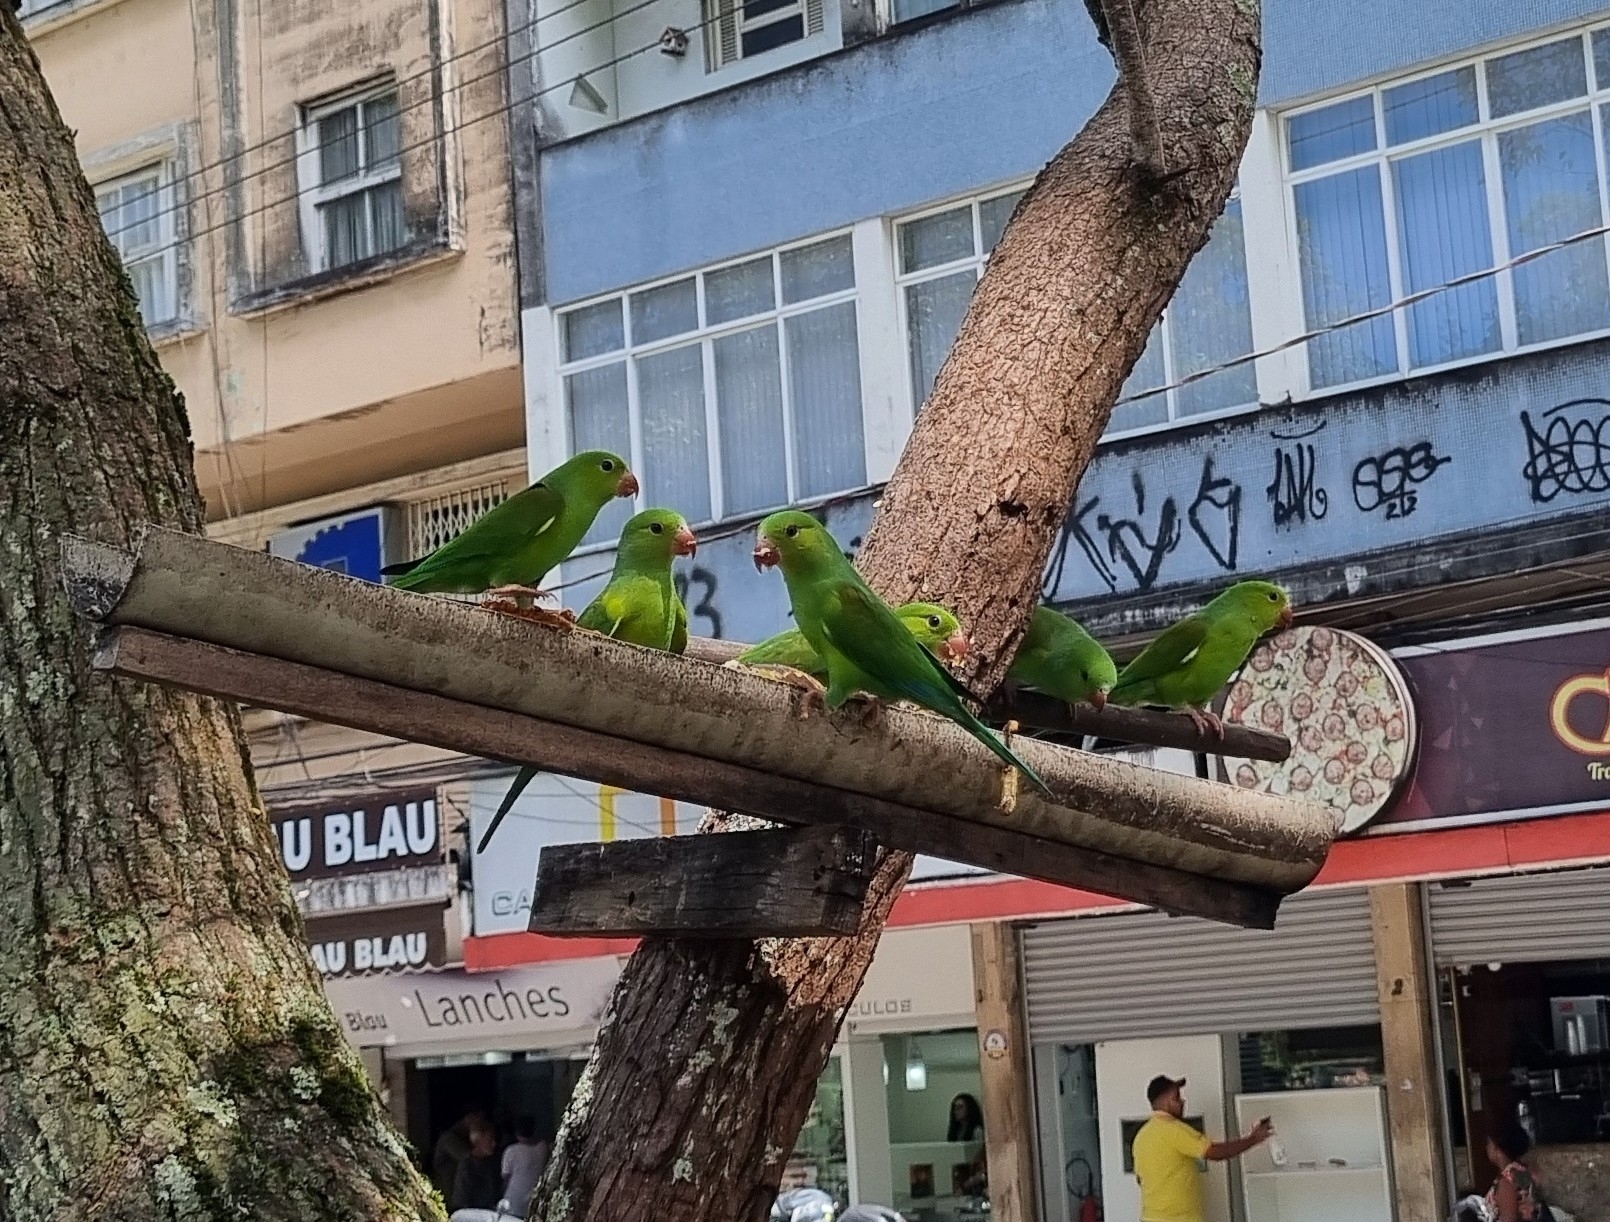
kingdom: Animalia
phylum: Chordata
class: Aves
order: Psittaciformes
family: Psittacidae
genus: Brotogeris
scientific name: Brotogeris tirica
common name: Plain parakeet
